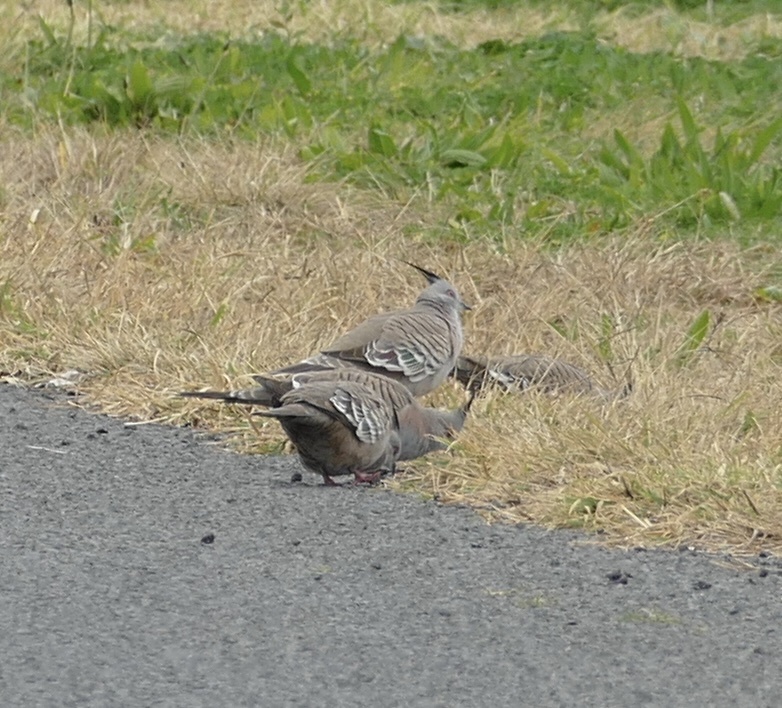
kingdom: Animalia
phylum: Chordata
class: Aves
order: Columbiformes
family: Columbidae
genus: Ocyphaps
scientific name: Ocyphaps lophotes
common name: Crested pigeon
